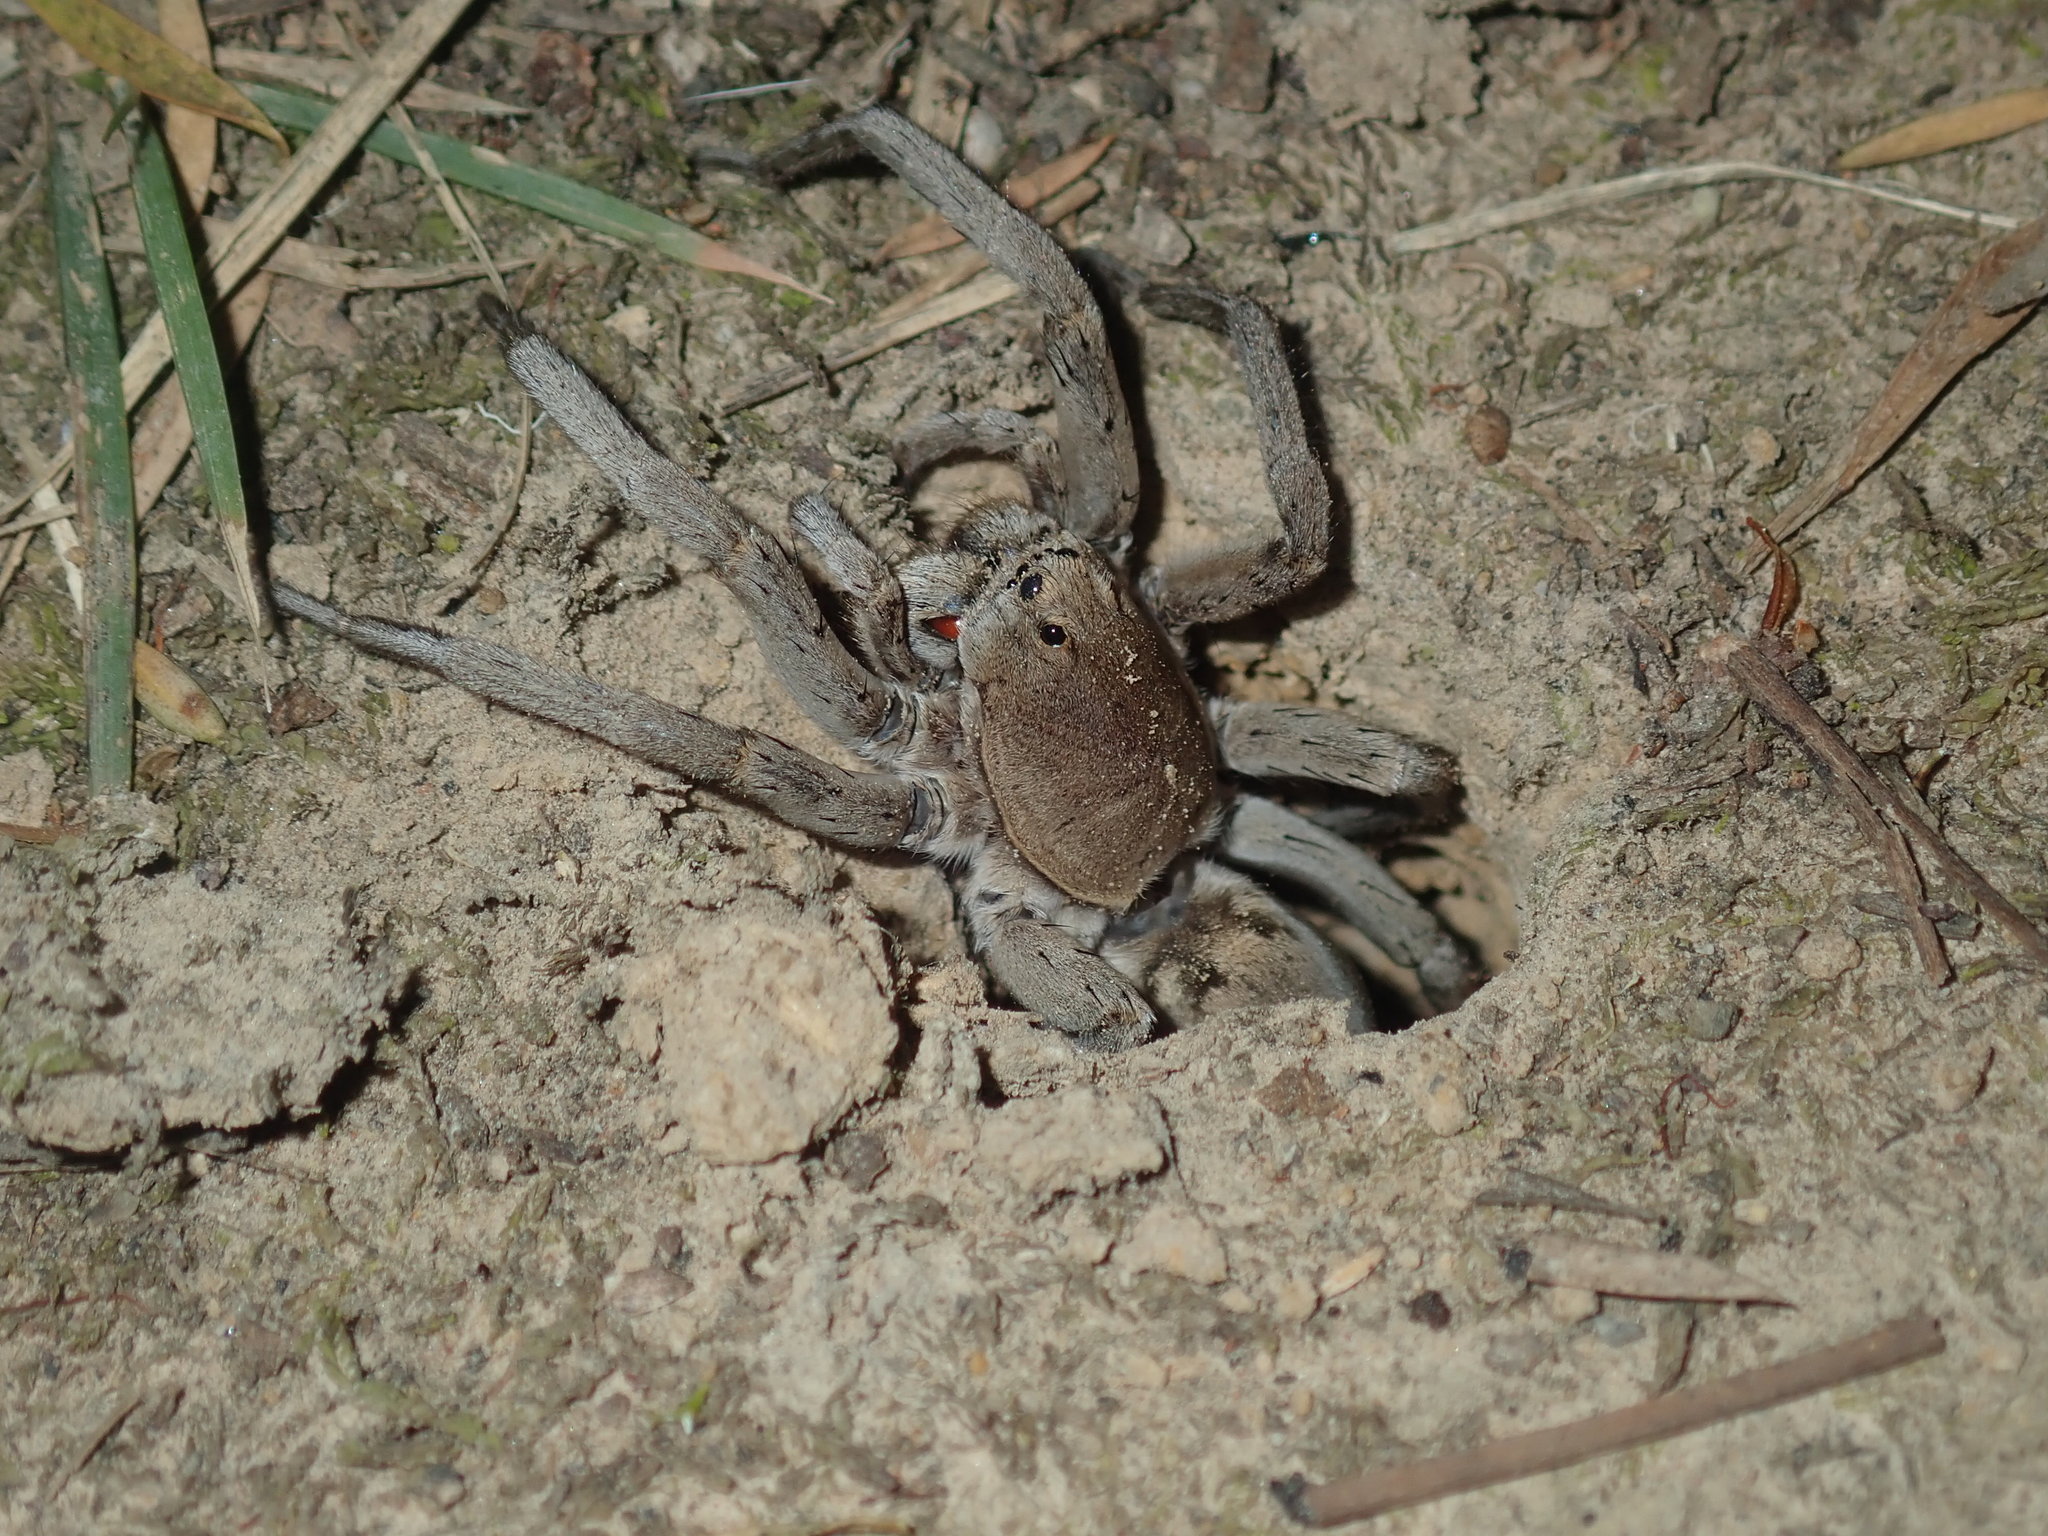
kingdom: Animalia
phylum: Arthropoda
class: Arachnida
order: Araneae
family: Lycosidae
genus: Portacosa
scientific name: Portacosa cinerea
